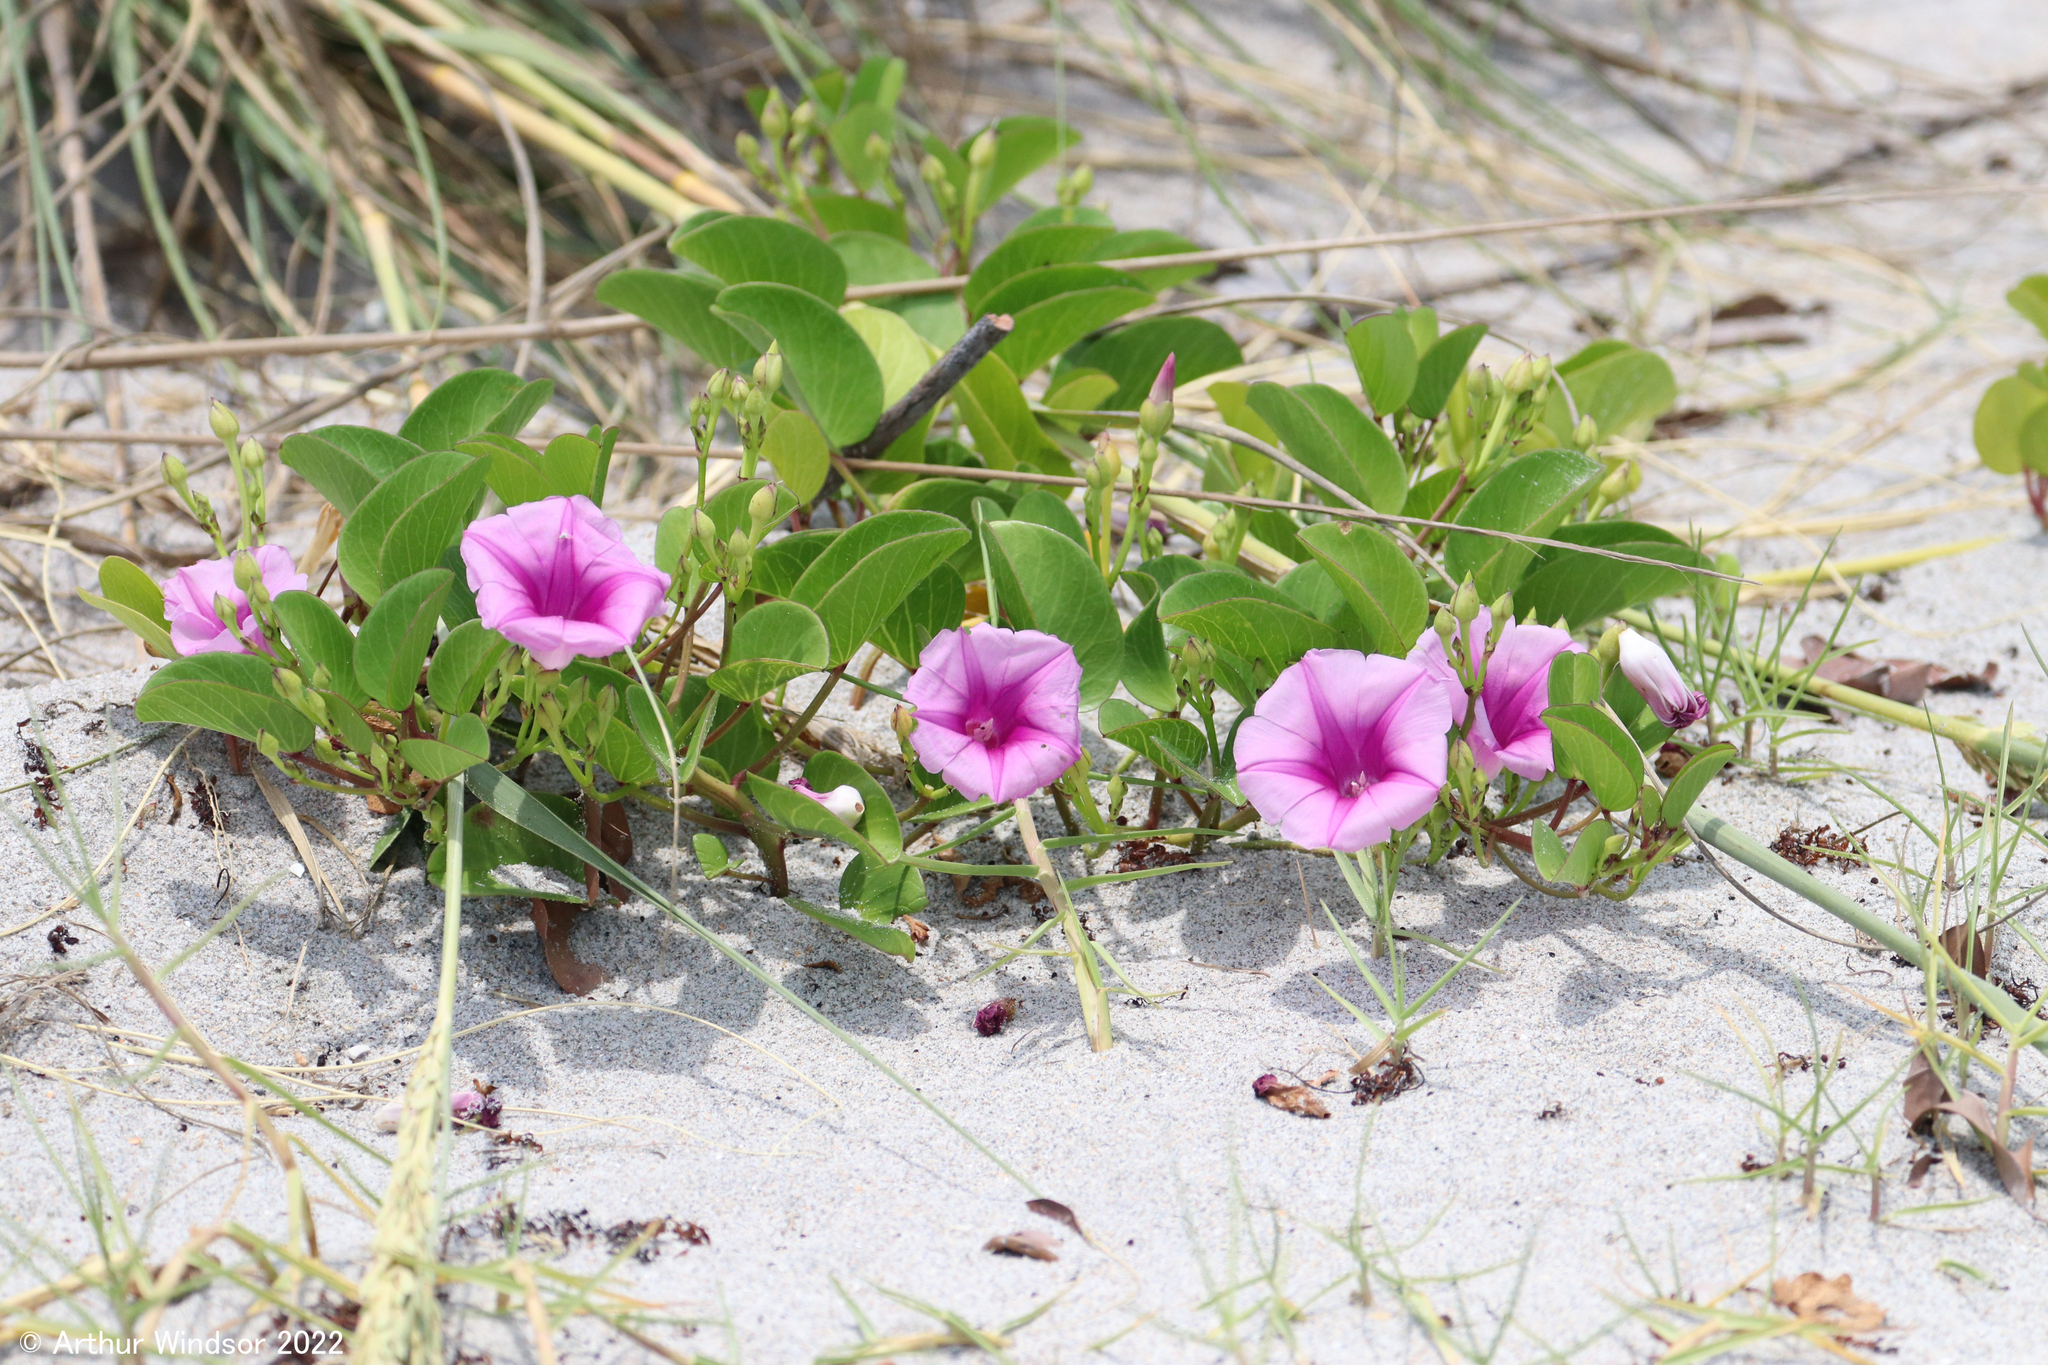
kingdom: Plantae
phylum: Tracheophyta
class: Magnoliopsida
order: Solanales
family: Convolvulaceae
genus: Ipomoea
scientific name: Ipomoea pes-caprae
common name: Beach morning glory
